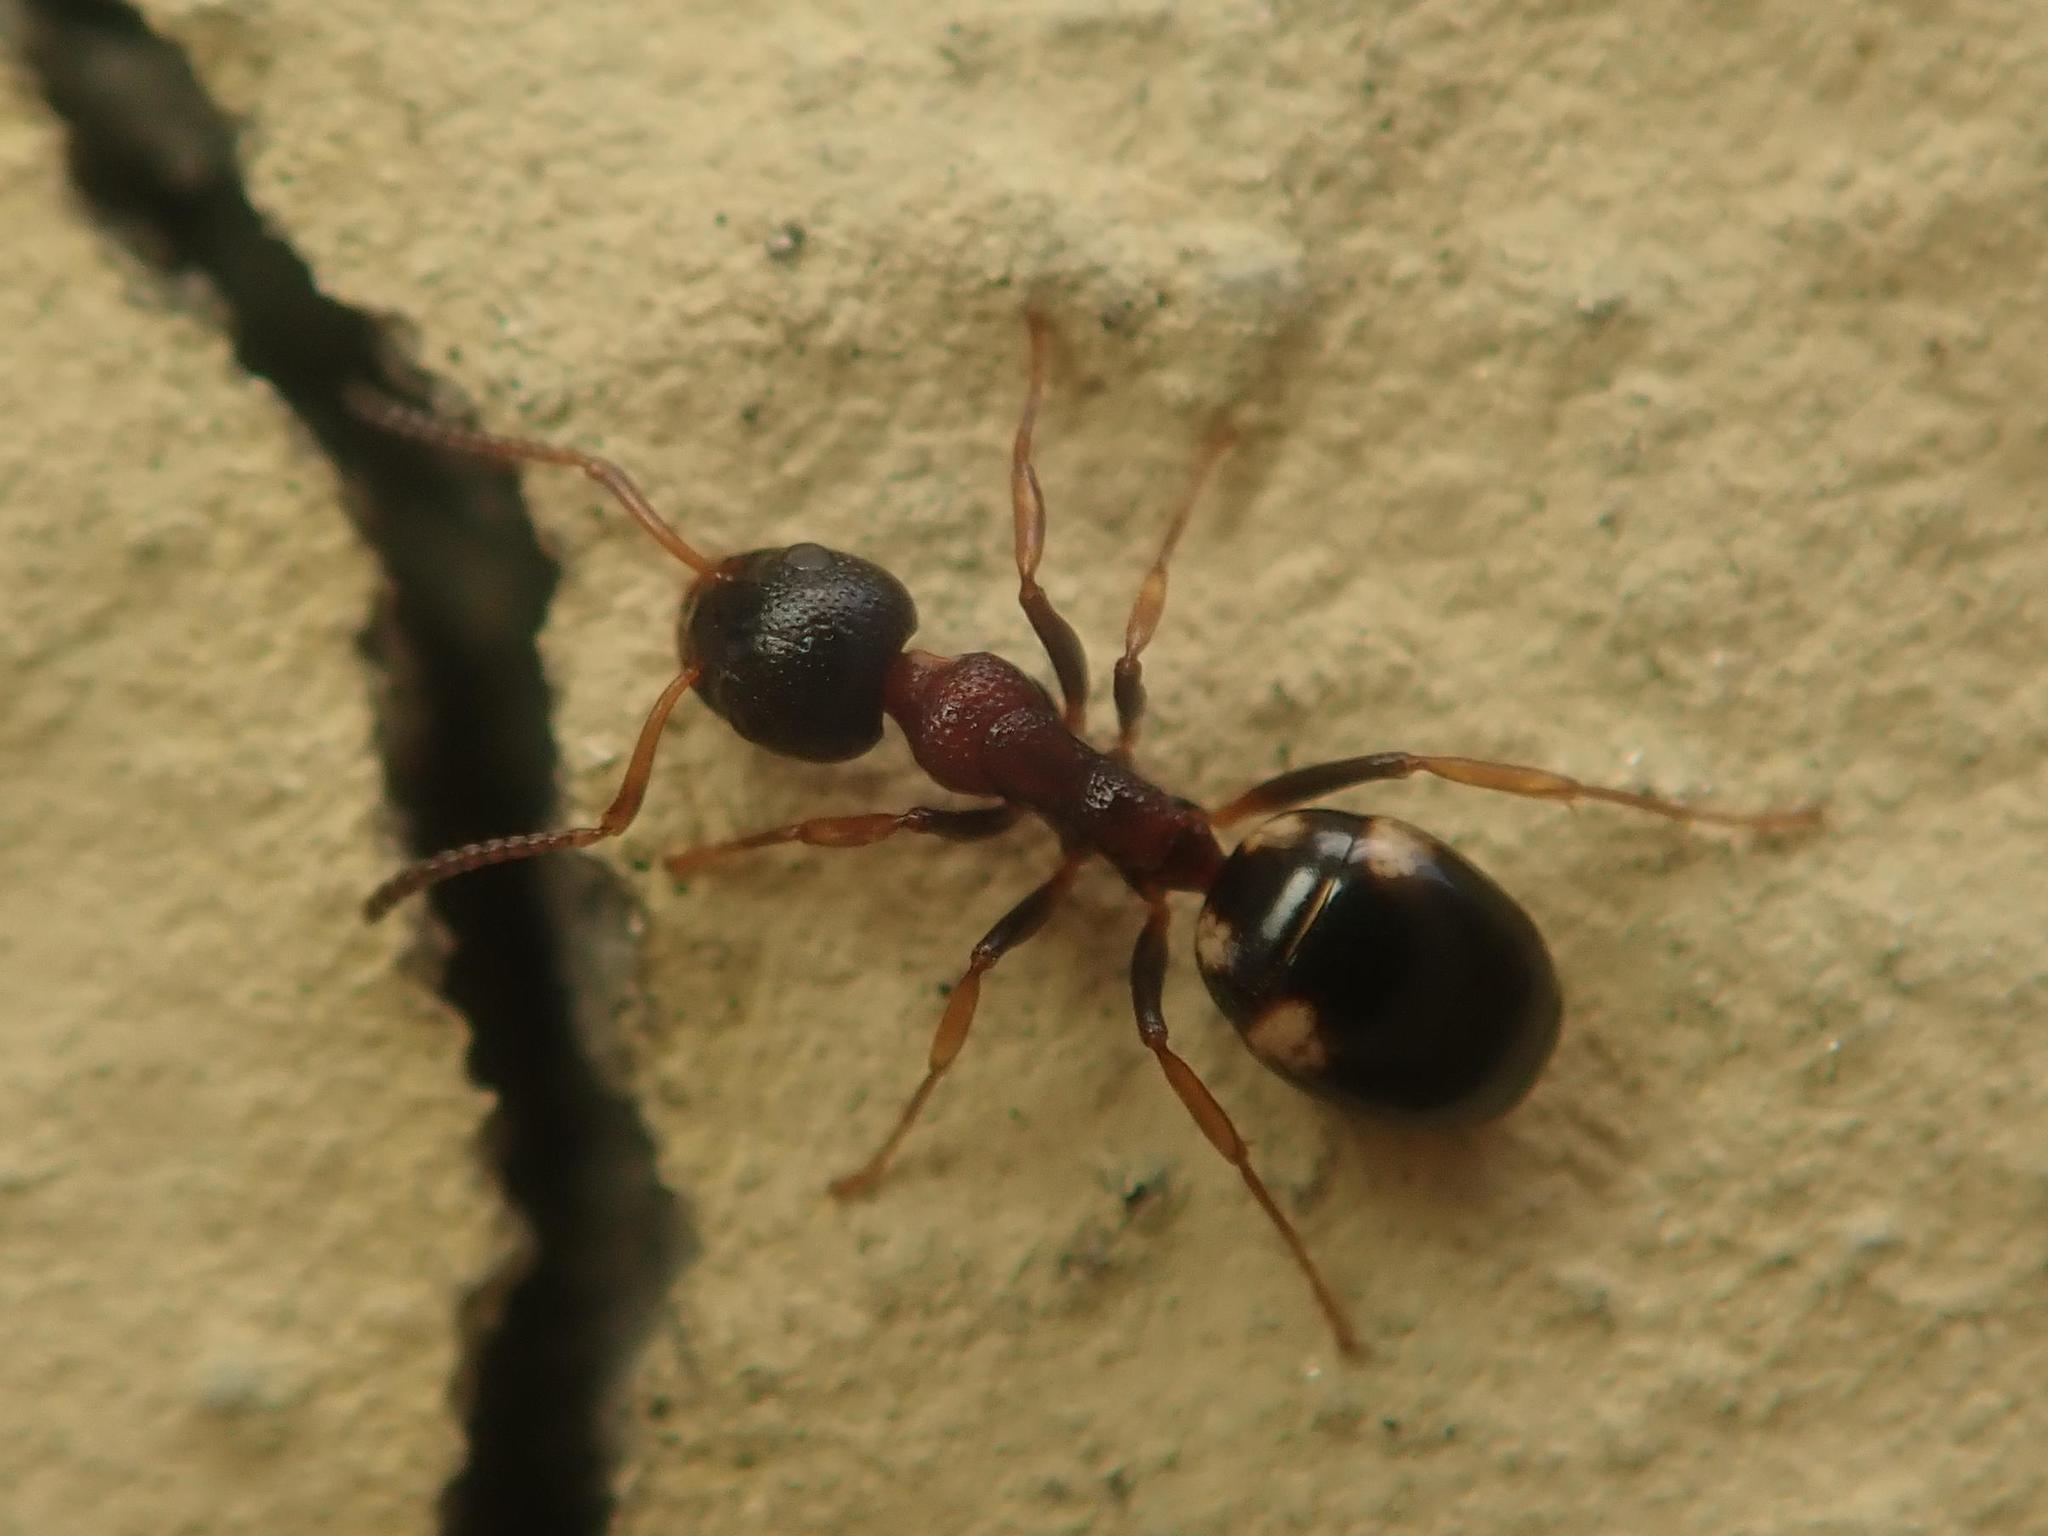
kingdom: Animalia
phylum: Arthropoda
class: Insecta
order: Hymenoptera
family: Formicidae
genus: Dolichoderus
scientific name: Dolichoderus quadripunctatus
